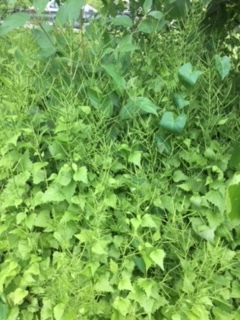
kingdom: Plantae
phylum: Tracheophyta
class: Magnoliopsida
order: Brassicales
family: Brassicaceae
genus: Alliaria
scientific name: Alliaria petiolata
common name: Garlic mustard
